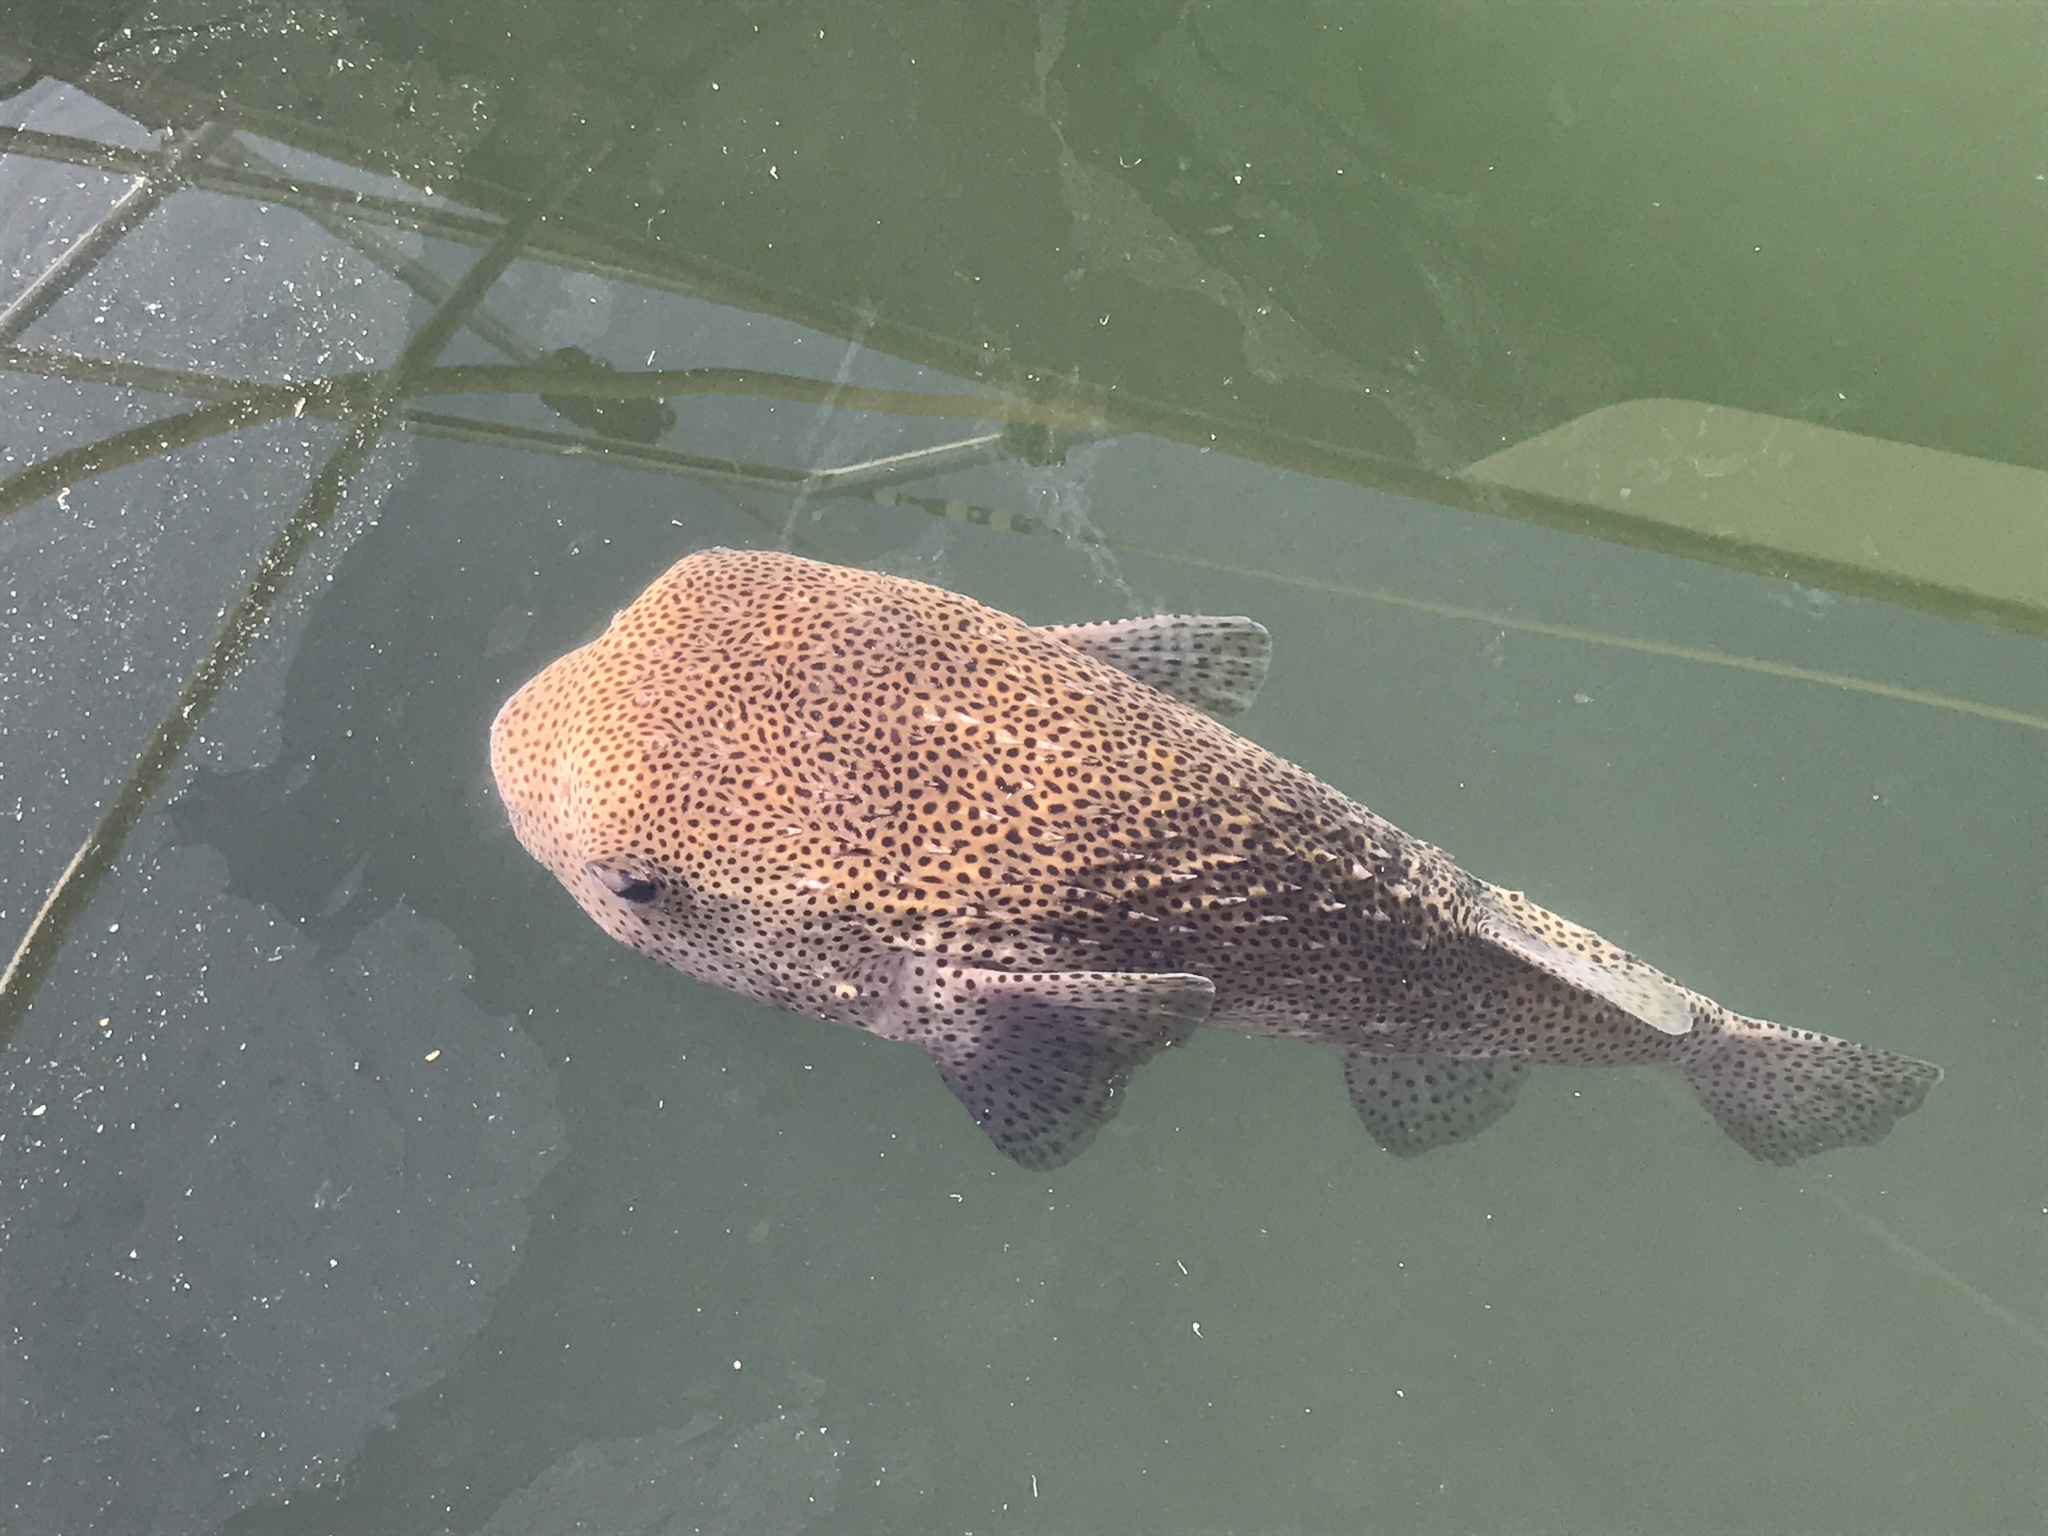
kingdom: Animalia
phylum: Chordata
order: Tetraodontiformes
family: Diodontidae
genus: Diodon
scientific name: Diodon hystrix
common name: Giant porcupinefish
